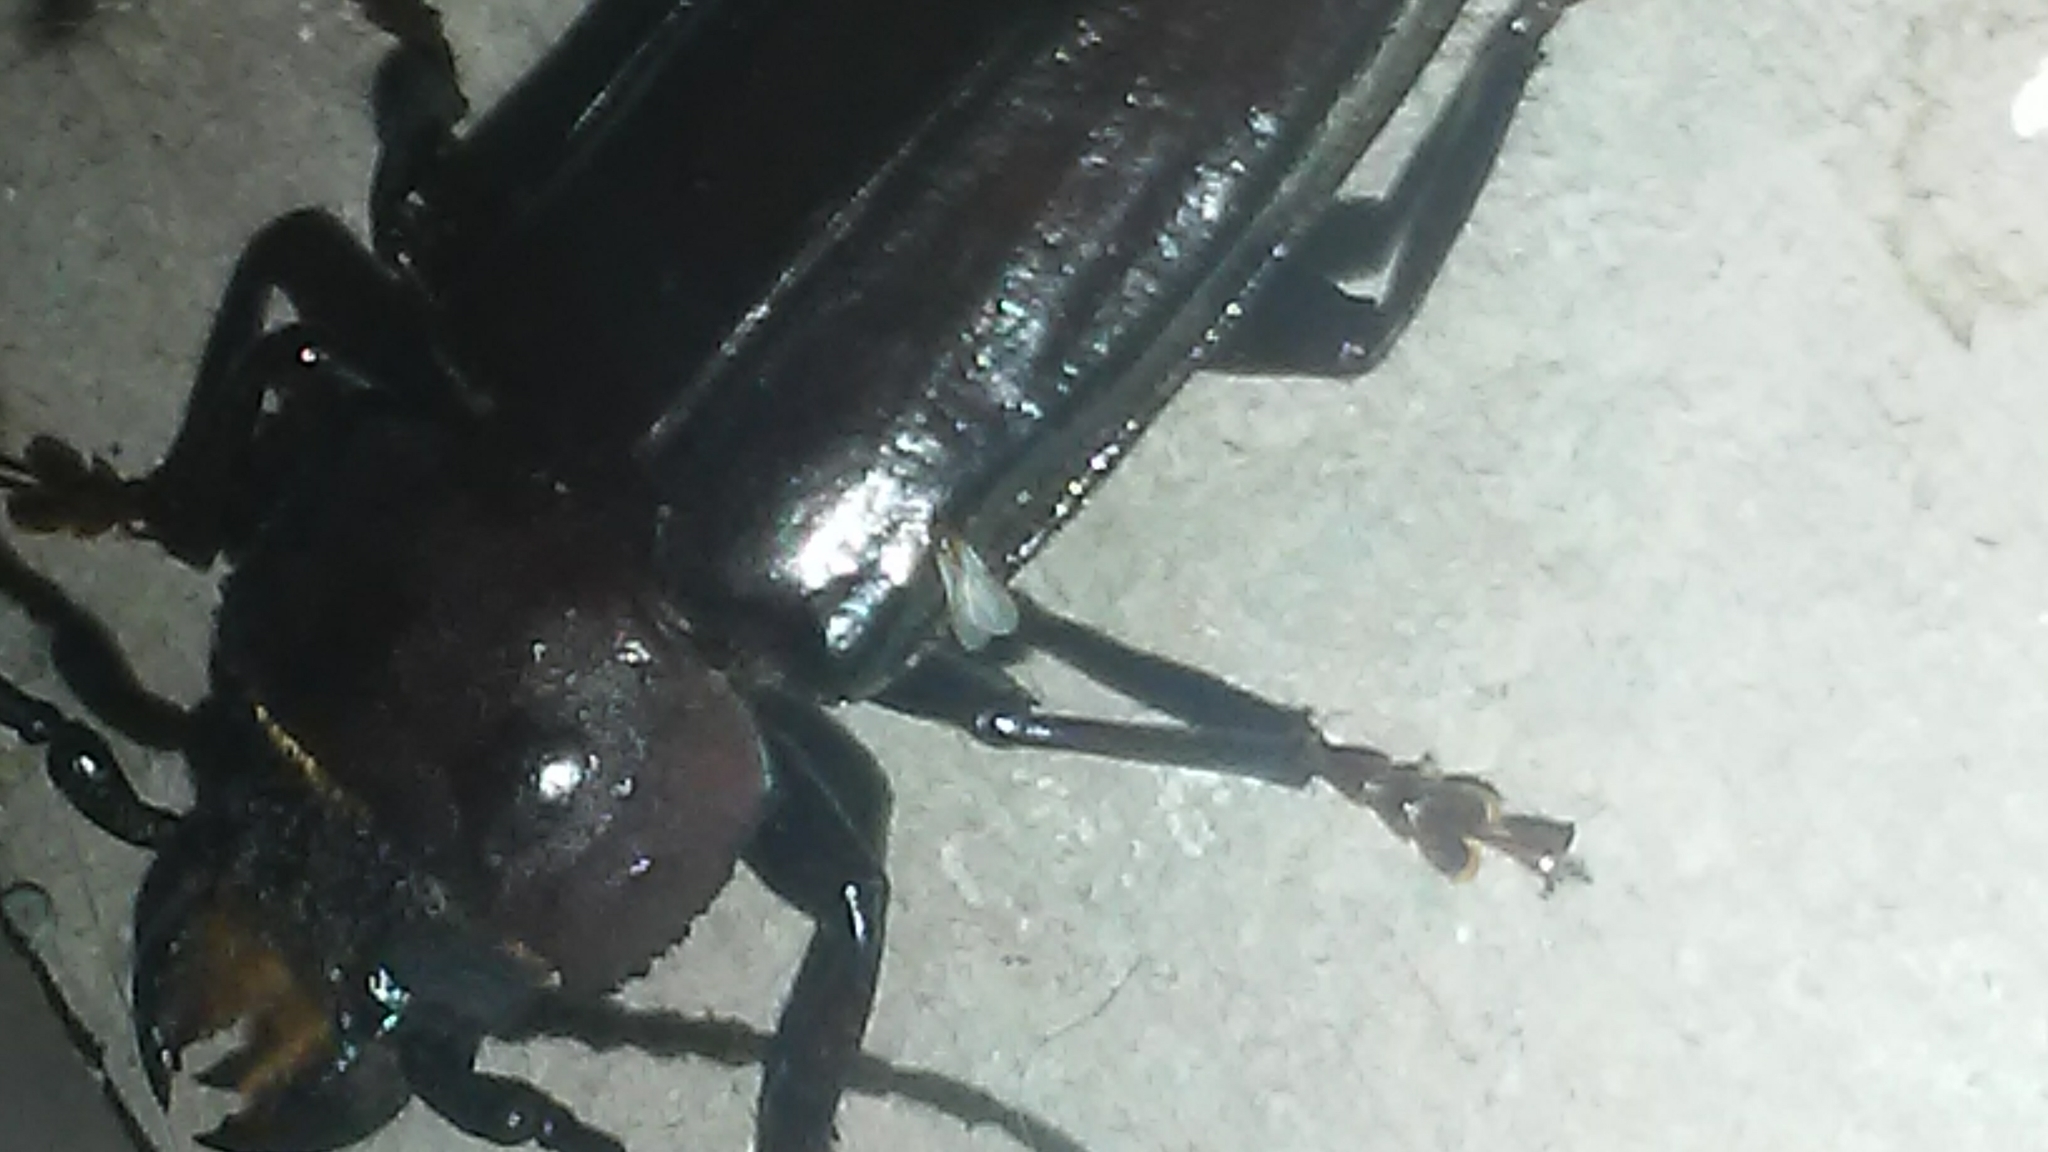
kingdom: Animalia
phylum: Arthropoda
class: Insecta
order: Coleoptera
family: Cerambycidae
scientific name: Cerambycidae
